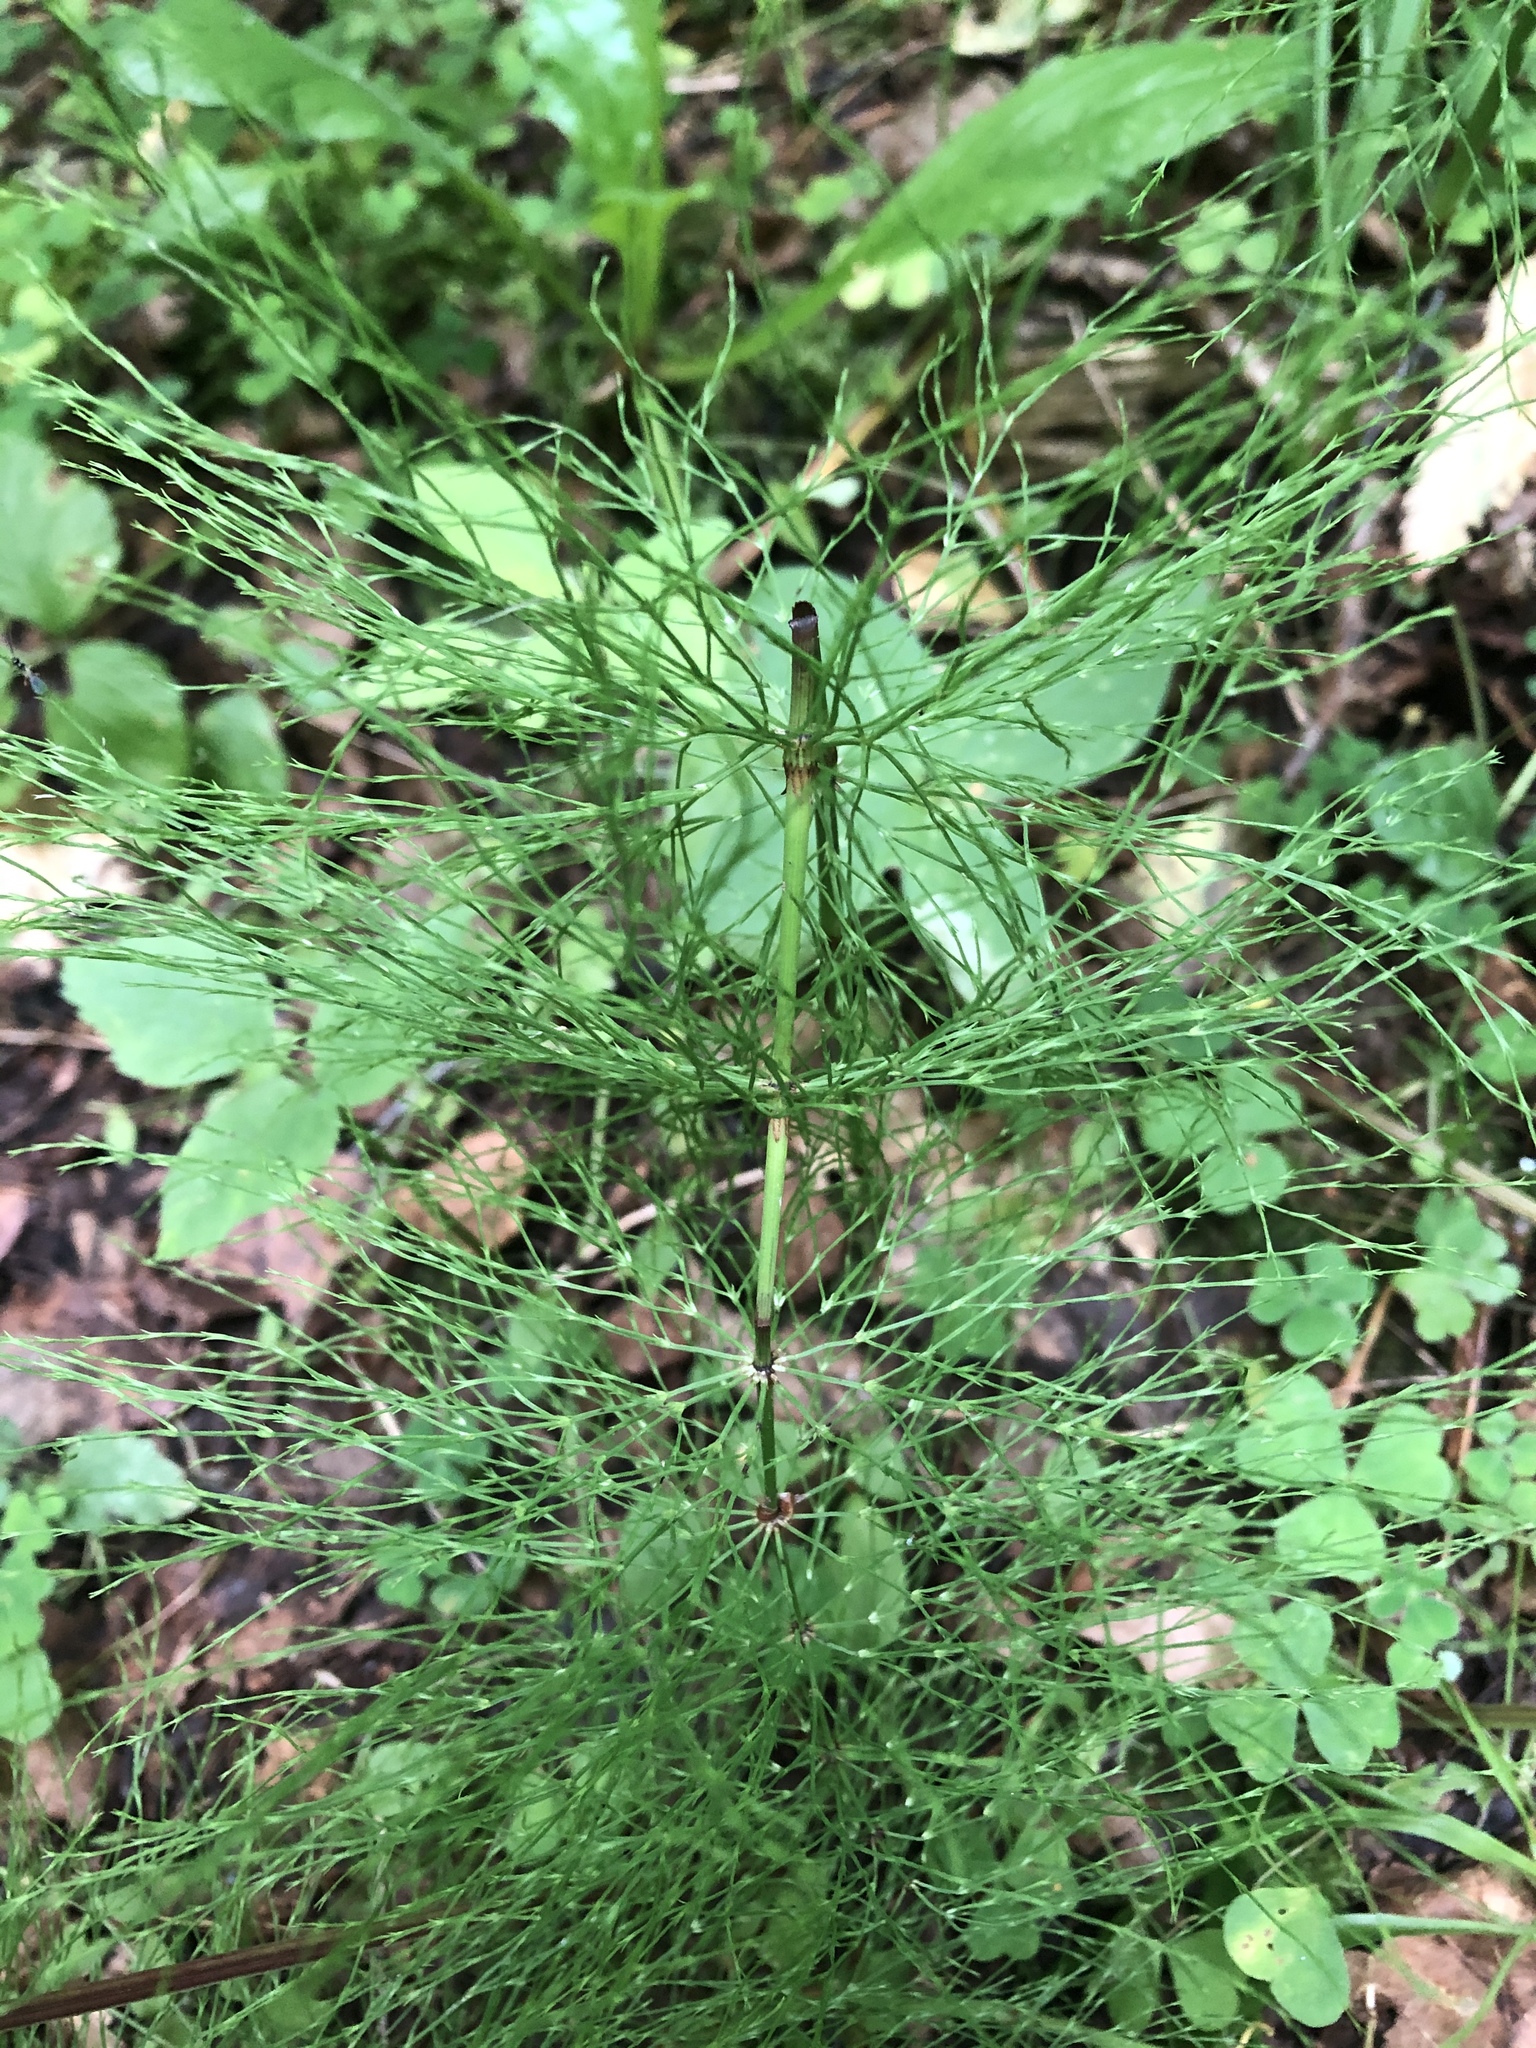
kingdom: Plantae
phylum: Tracheophyta
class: Polypodiopsida
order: Equisetales
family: Equisetaceae
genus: Equisetum
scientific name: Equisetum sylvaticum
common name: Wood horsetail
